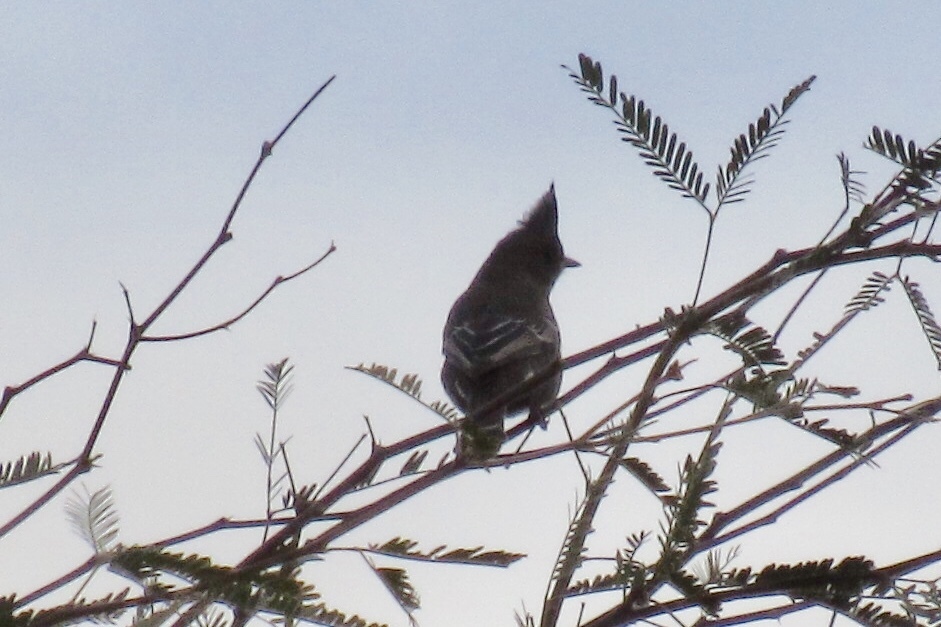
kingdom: Animalia
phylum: Chordata
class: Aves
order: Passeriformes
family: Ptilogonatidae
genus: Phainopepla
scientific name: Phainopepla nitens
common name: Phainopepla
